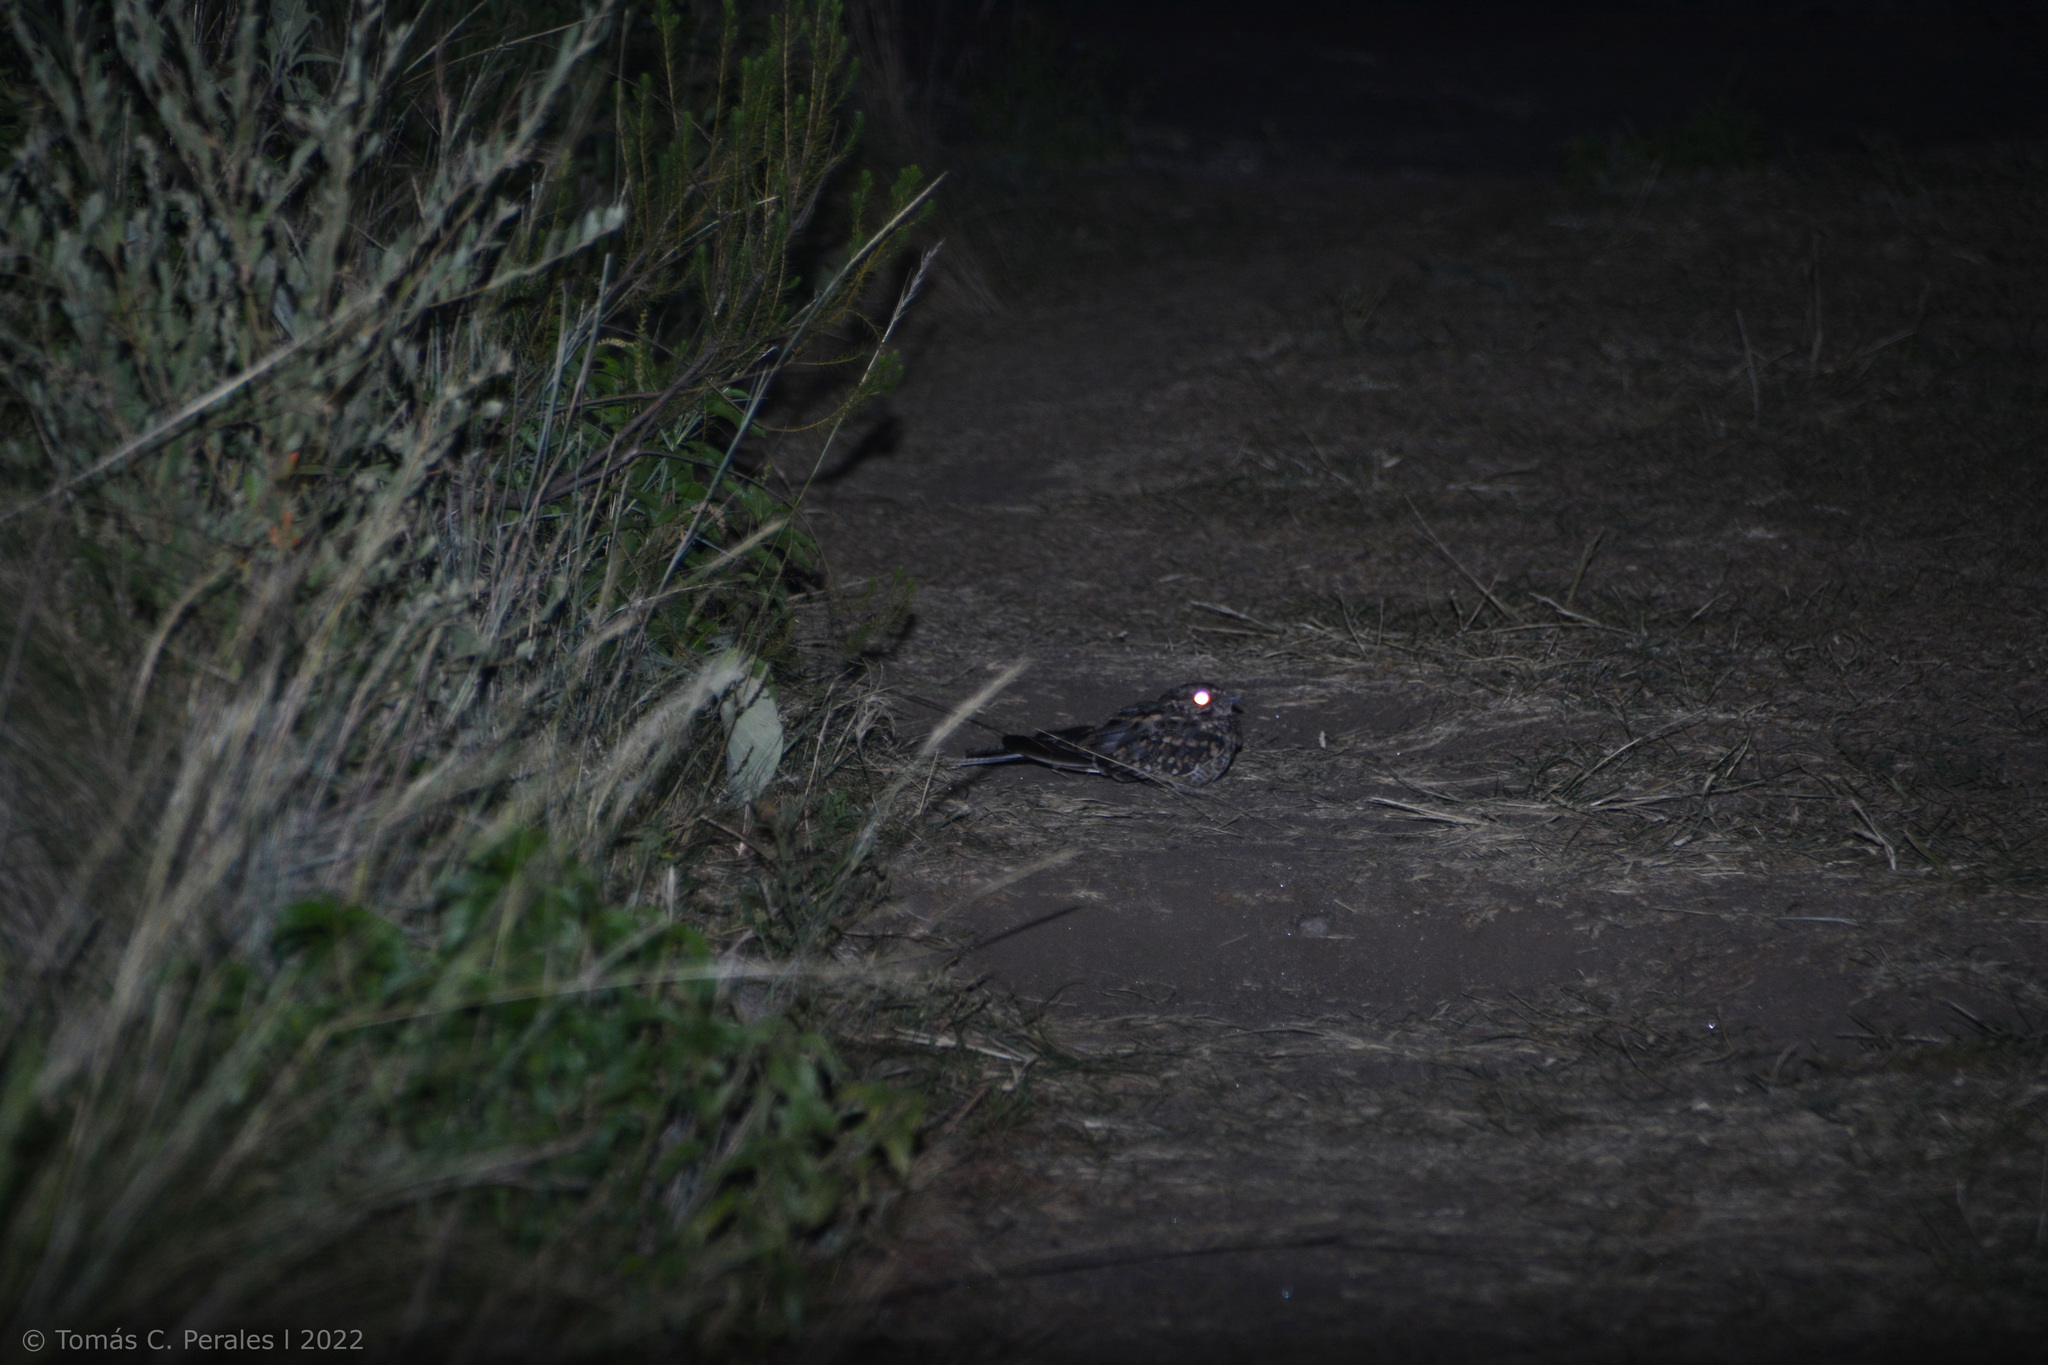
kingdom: Animalia
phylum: Chordata
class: Aves
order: Caprimulgiformes
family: Caprimulgidae
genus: Setopagis
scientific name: Setopagis parvula
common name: Little nightjar
